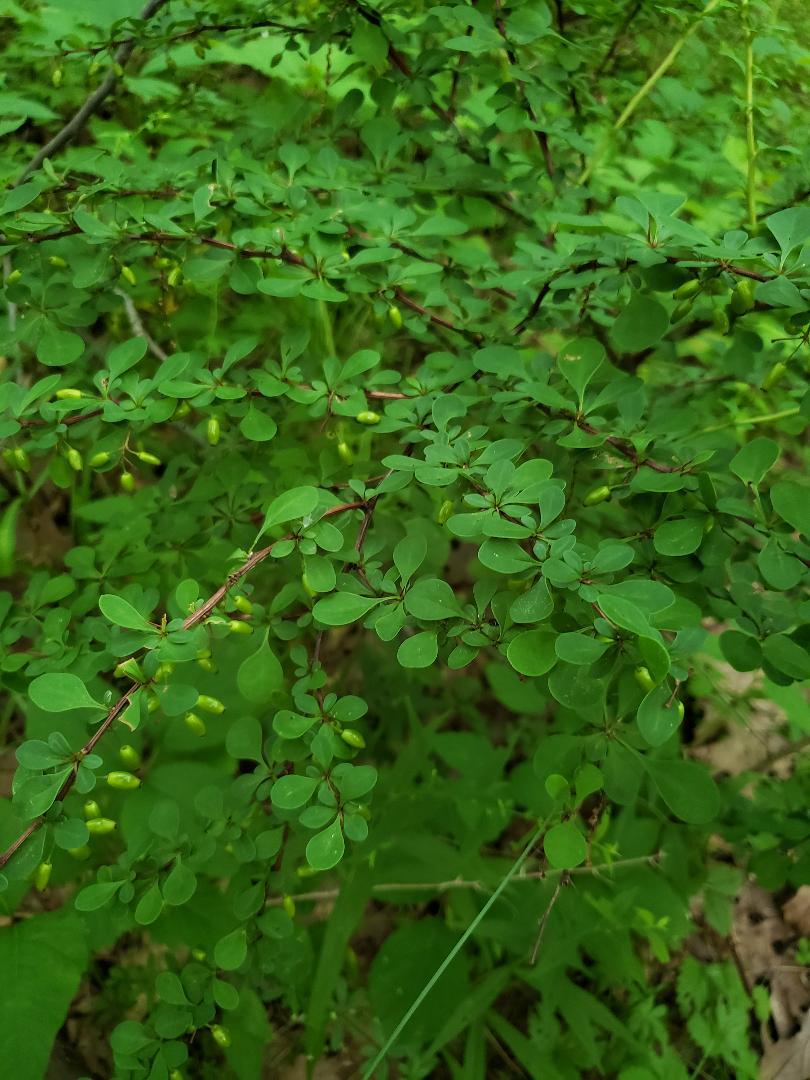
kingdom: Plantae
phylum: Tracheophyta
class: Magnoliopsida
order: Ranunculales
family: Berberidaceae
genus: Berberis
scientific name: Berberis thunbergii
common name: Japanese barberry
